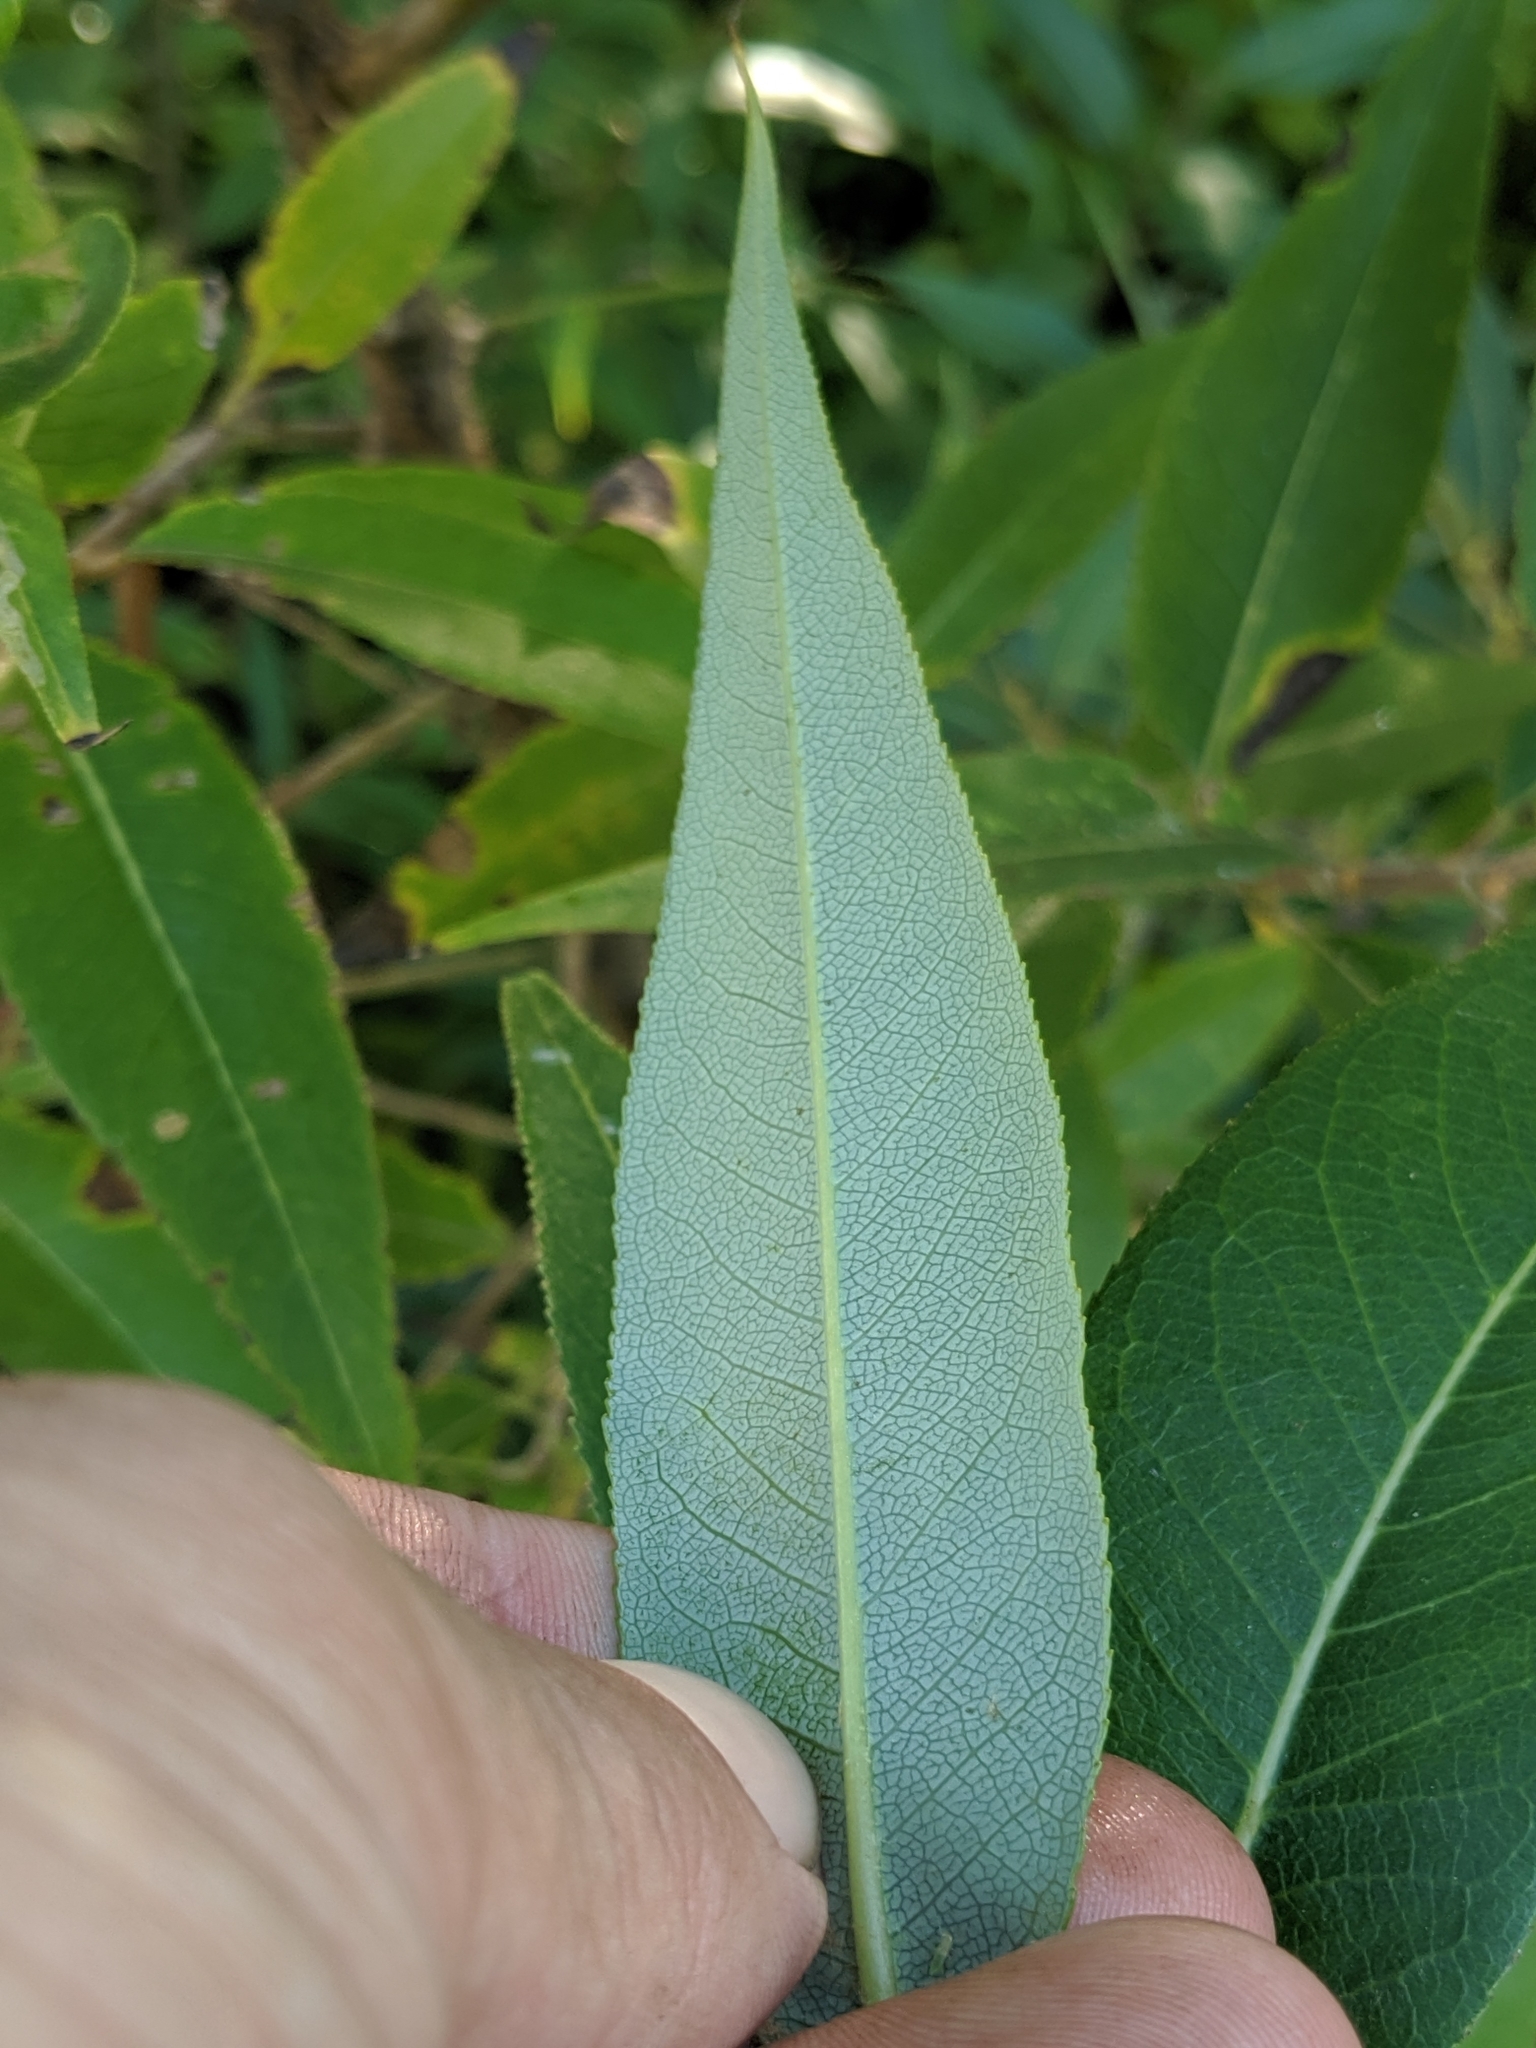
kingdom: Plantae
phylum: Tracheophyta
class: Magnoliopsida
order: Malpighiales
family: Salicaceae
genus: Salix
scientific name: Salix lucida
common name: Shining willow
